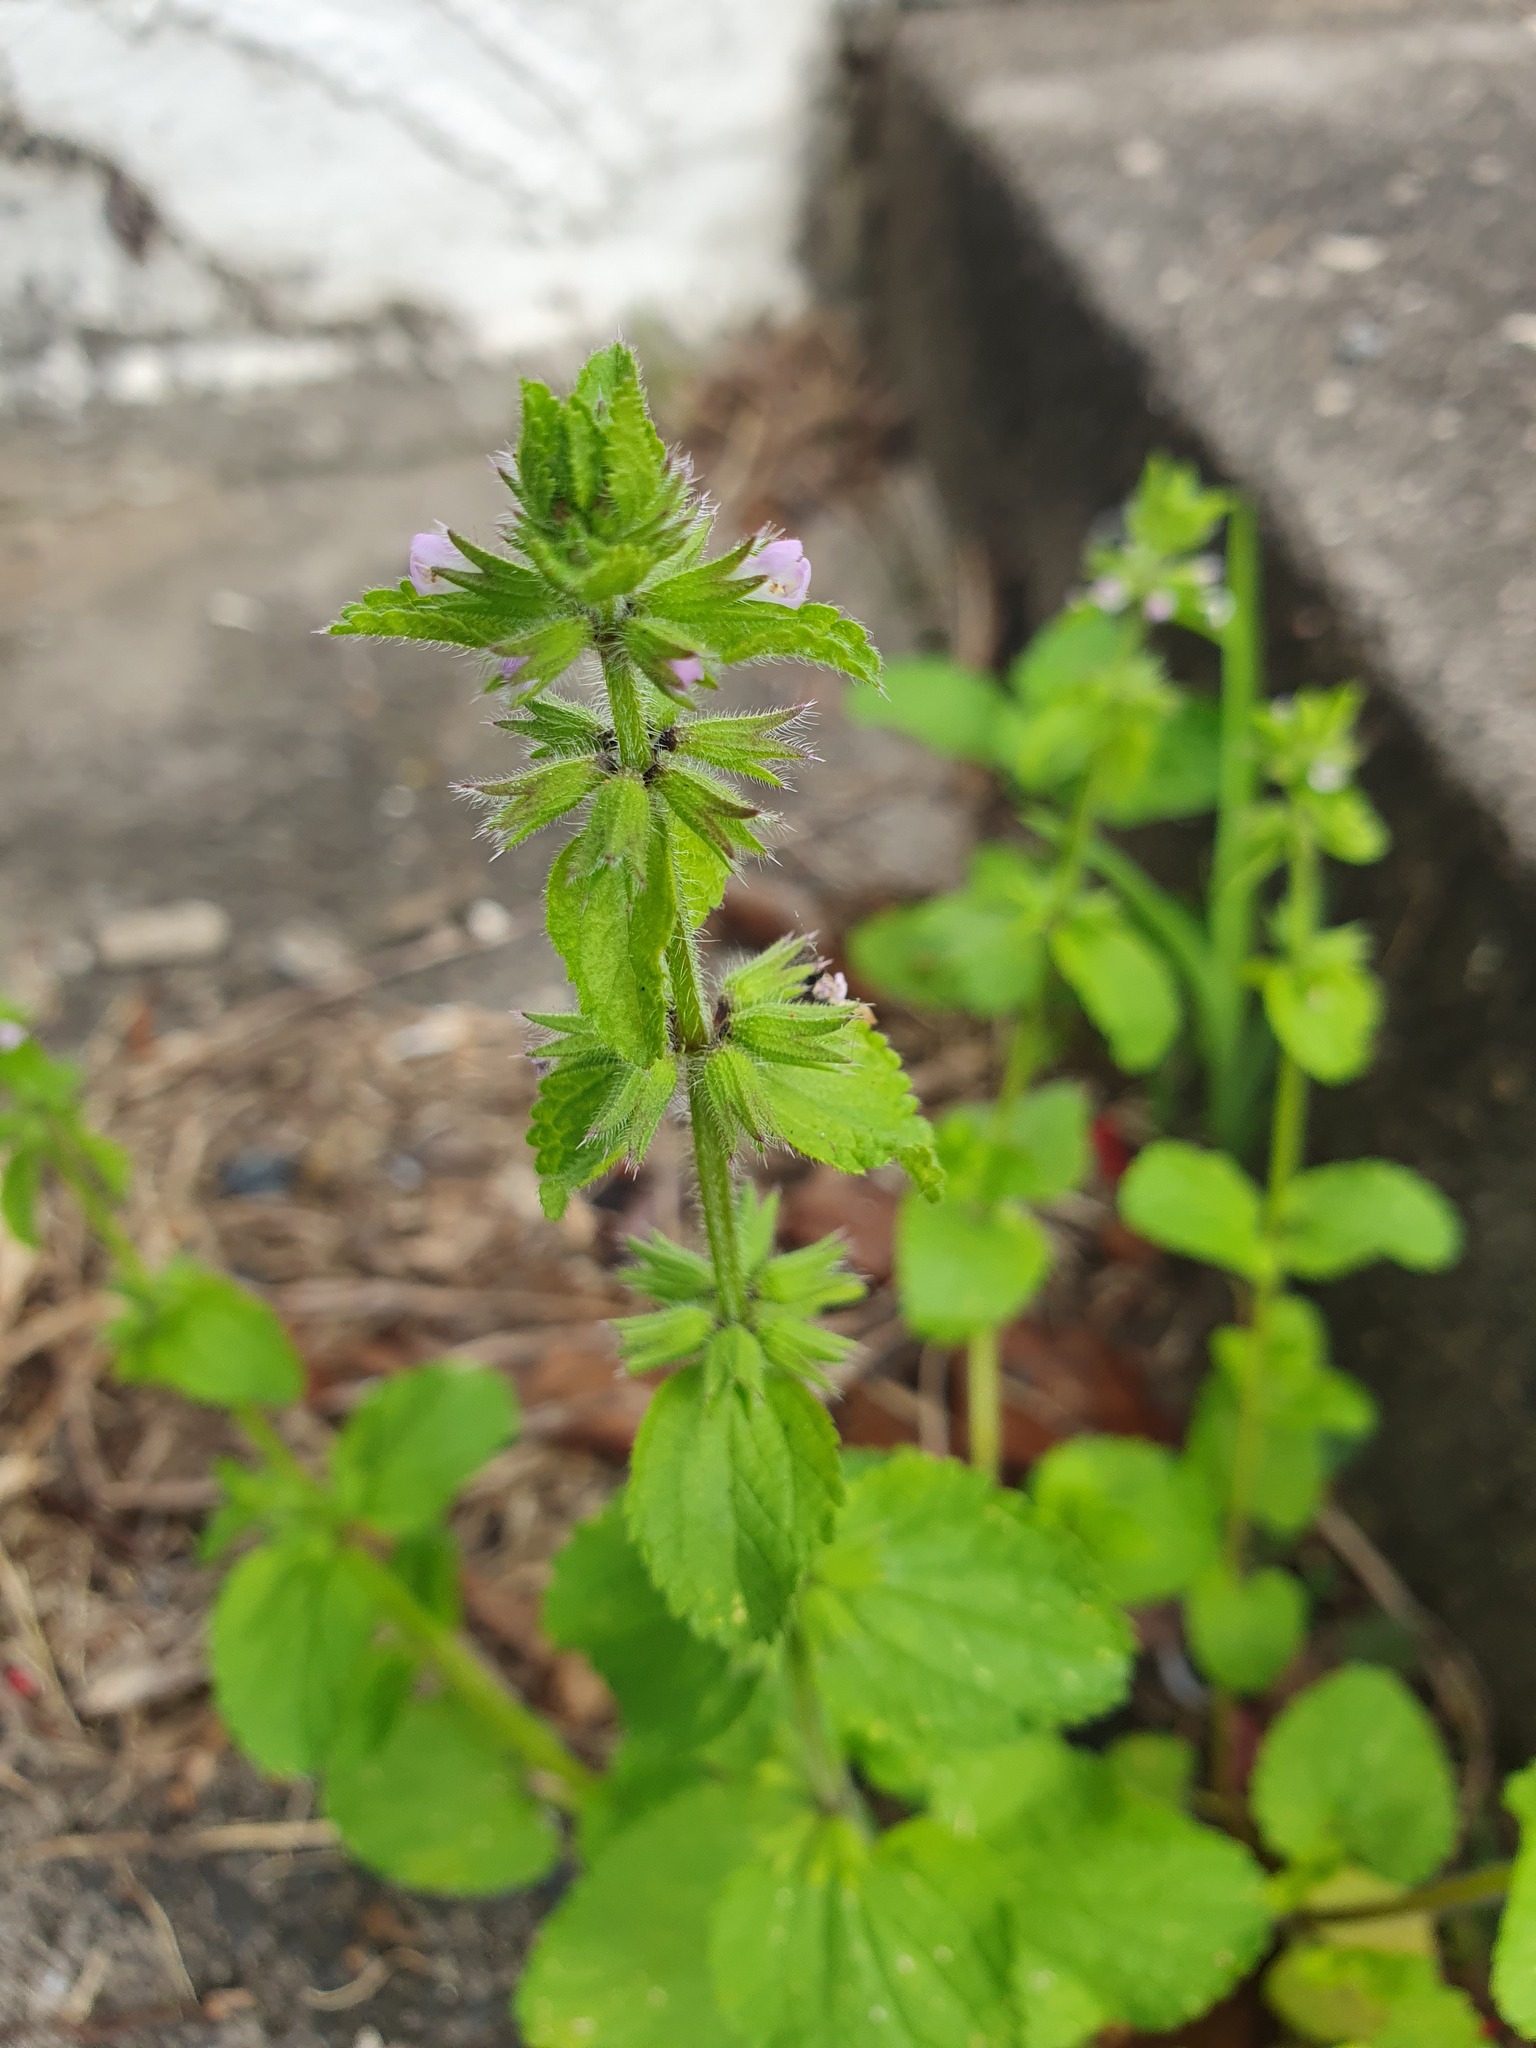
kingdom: Plantae
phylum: Tracheophyta
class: Magnoliopsida
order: Lamiales
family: Lamiaceae
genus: Stachys
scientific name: Stachys arvensis
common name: Field woundwort
